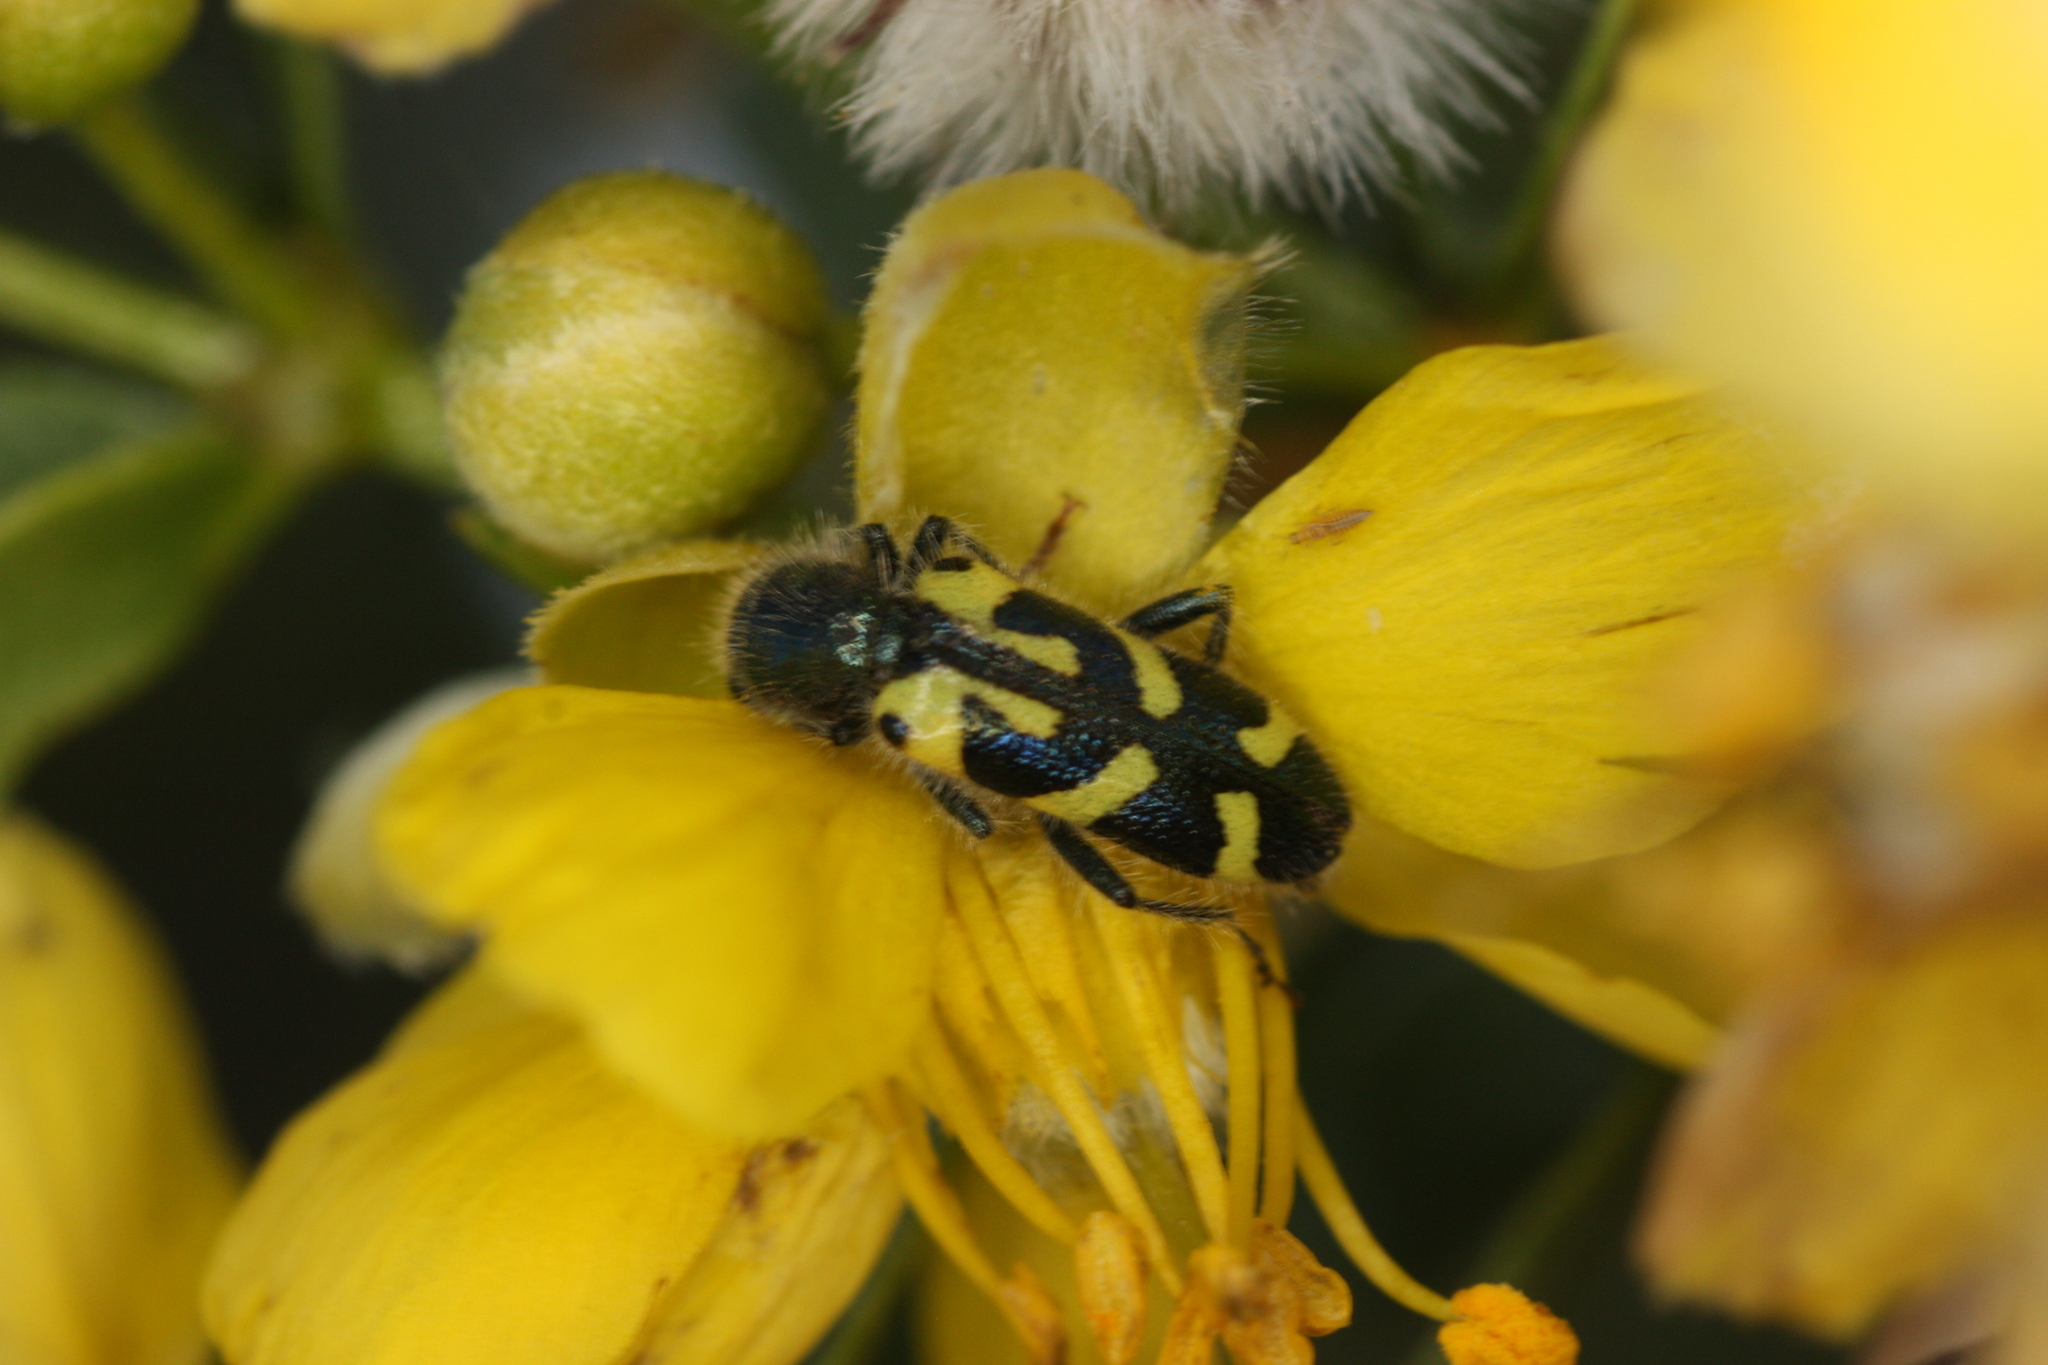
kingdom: Animalia
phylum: Arthropoda
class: Insecta
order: Coleoptera
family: Cleridae
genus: Trichodes
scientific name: Trichodes ornatus
